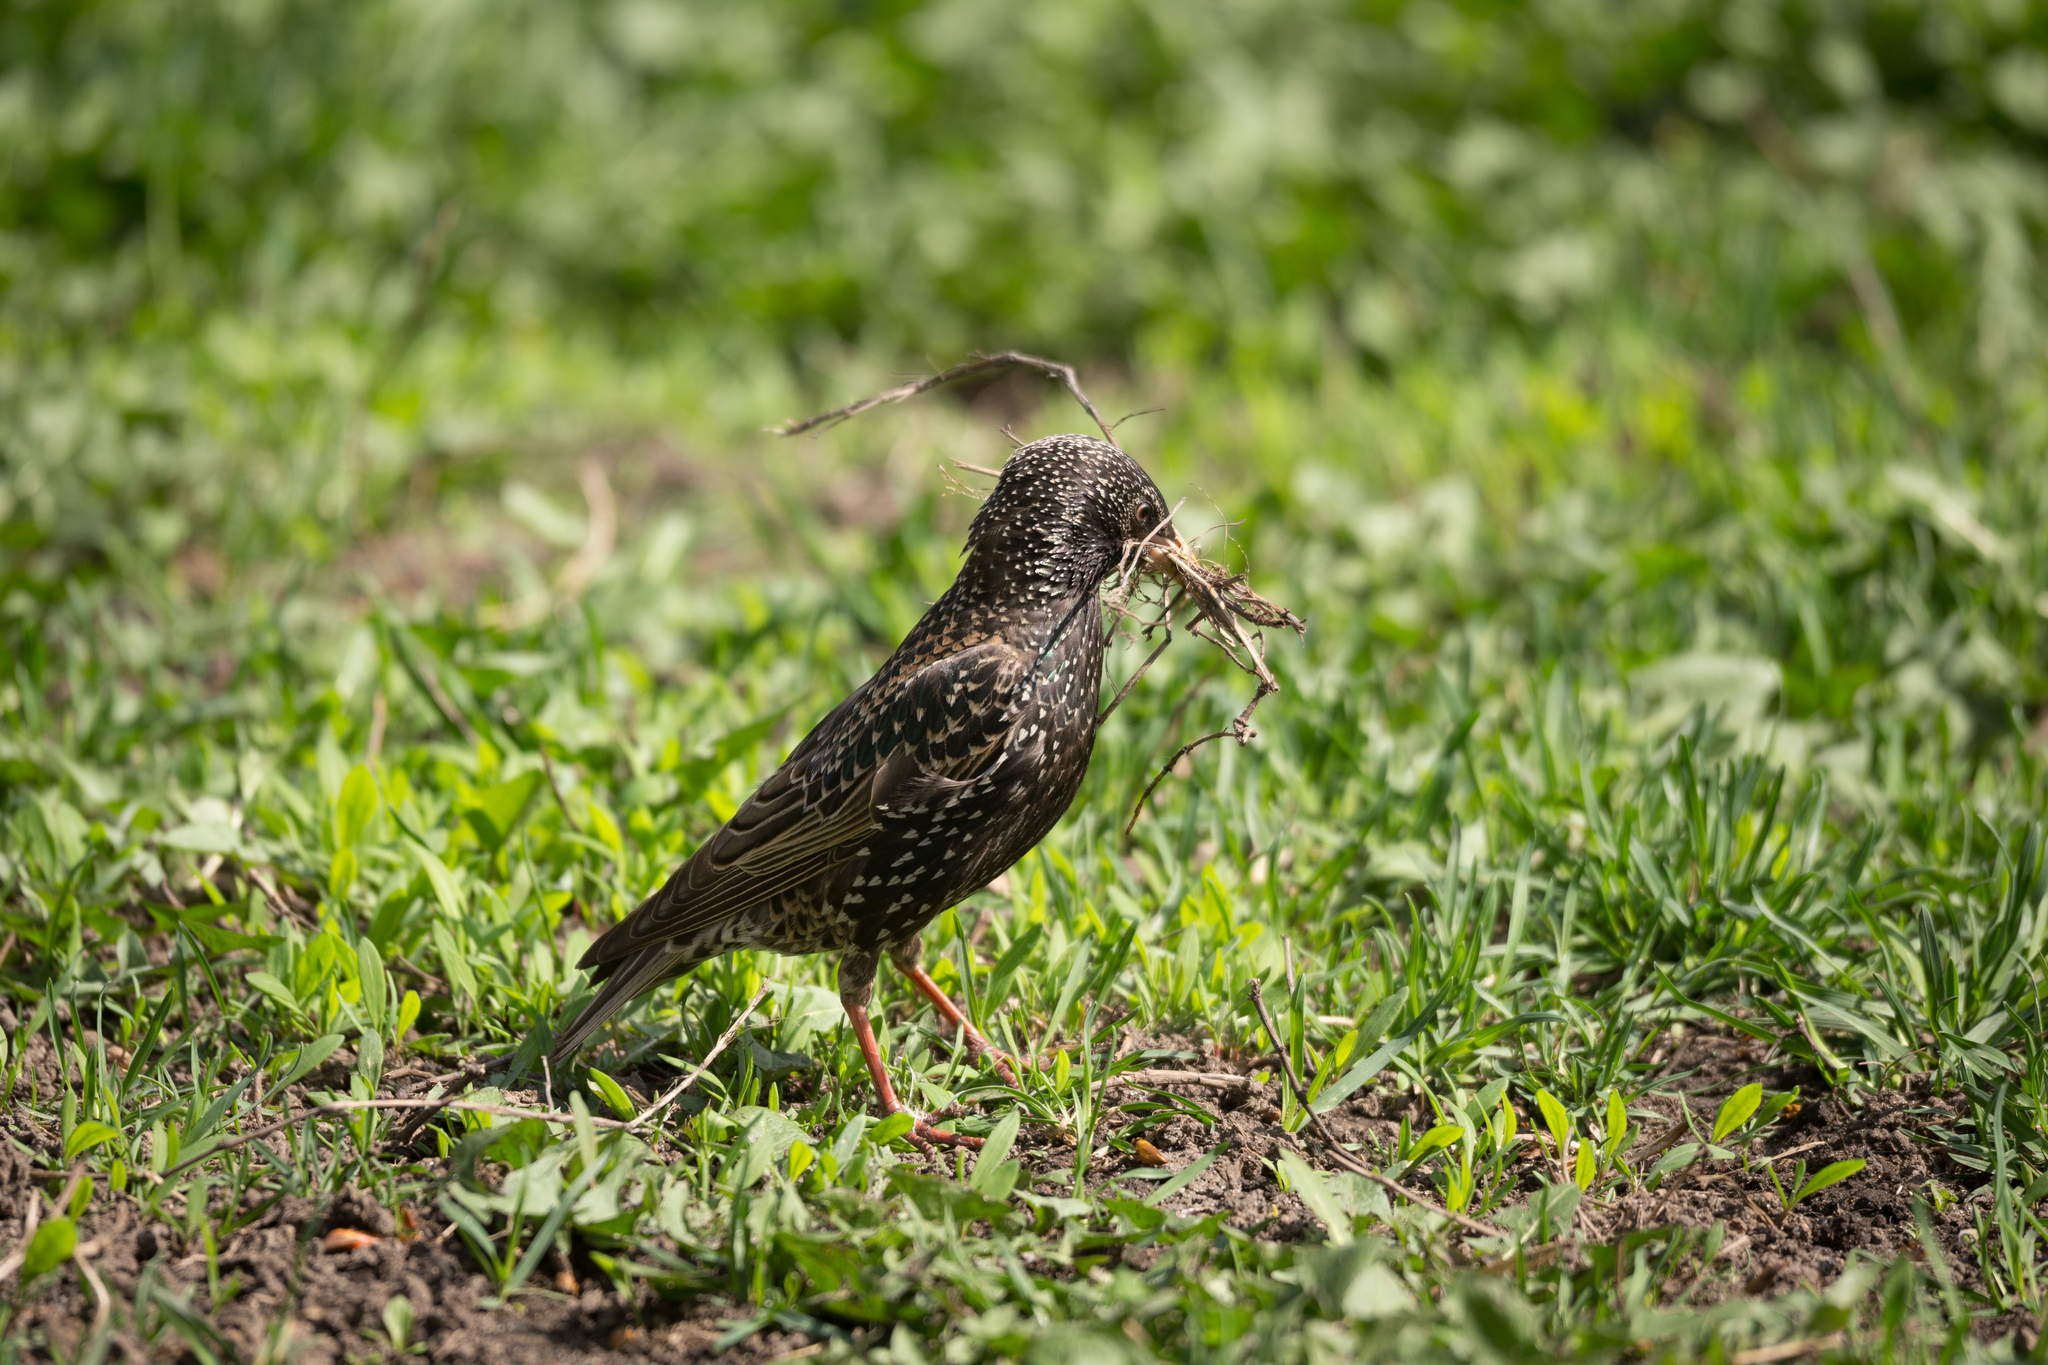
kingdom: Animalia
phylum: Chordata
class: Aves
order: Passeriformes
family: Sturnidae
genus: Sturnus
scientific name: Sturnus vulgaris
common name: Common starling
